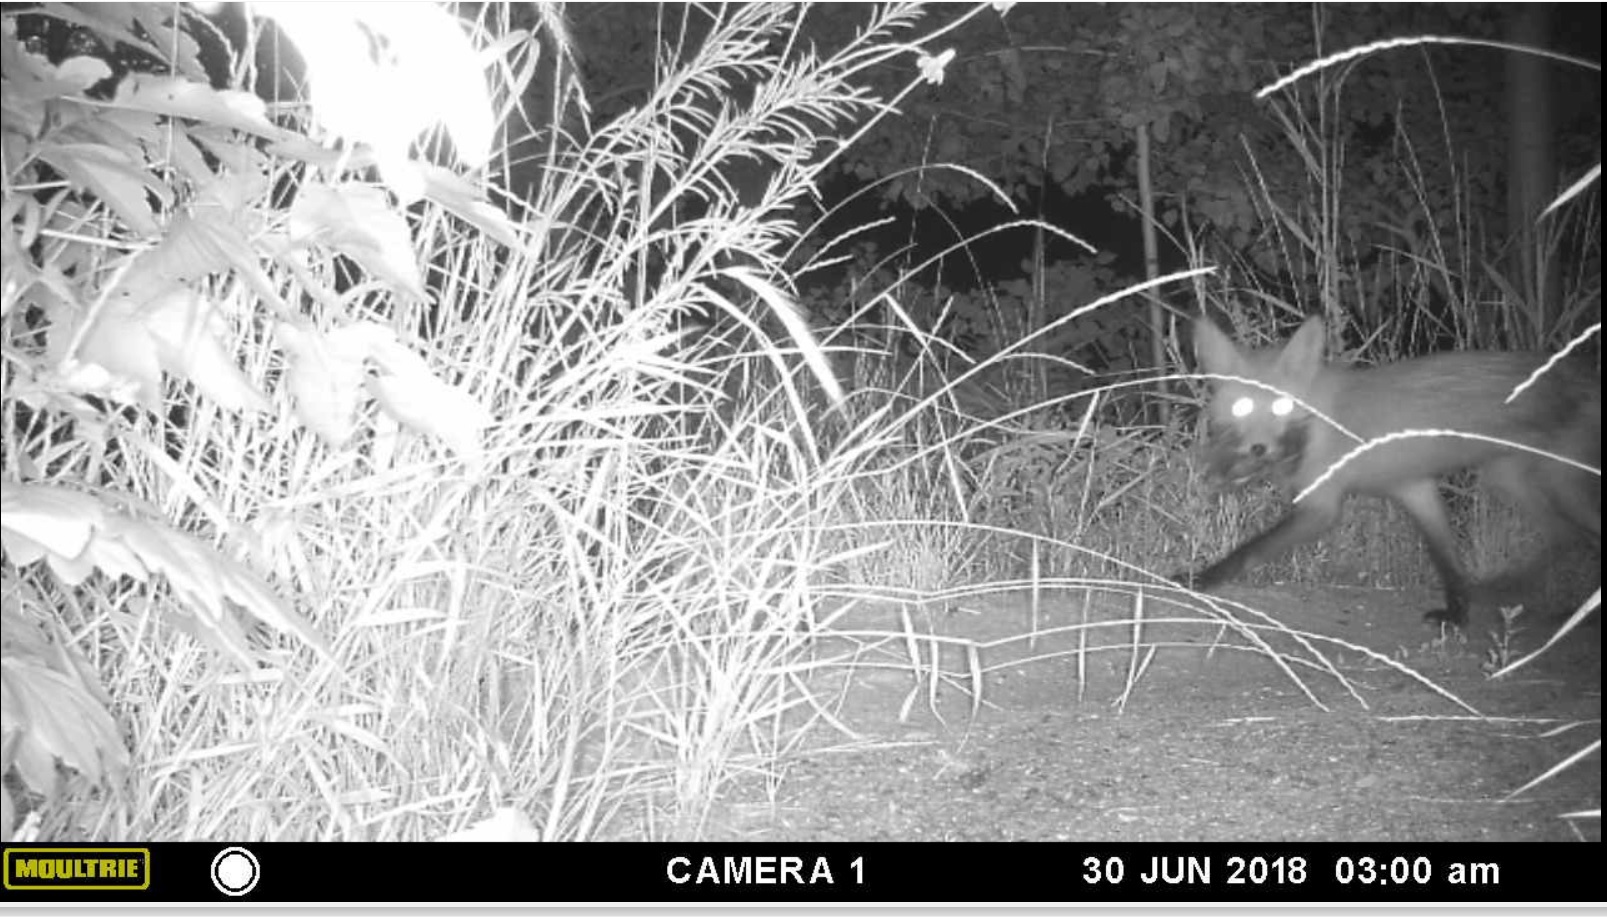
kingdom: Animalia
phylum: Chordata
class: Mammalia
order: Carnivora
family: Canidae
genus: Vulpes
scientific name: Vulpes vulpes
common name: Red fox
